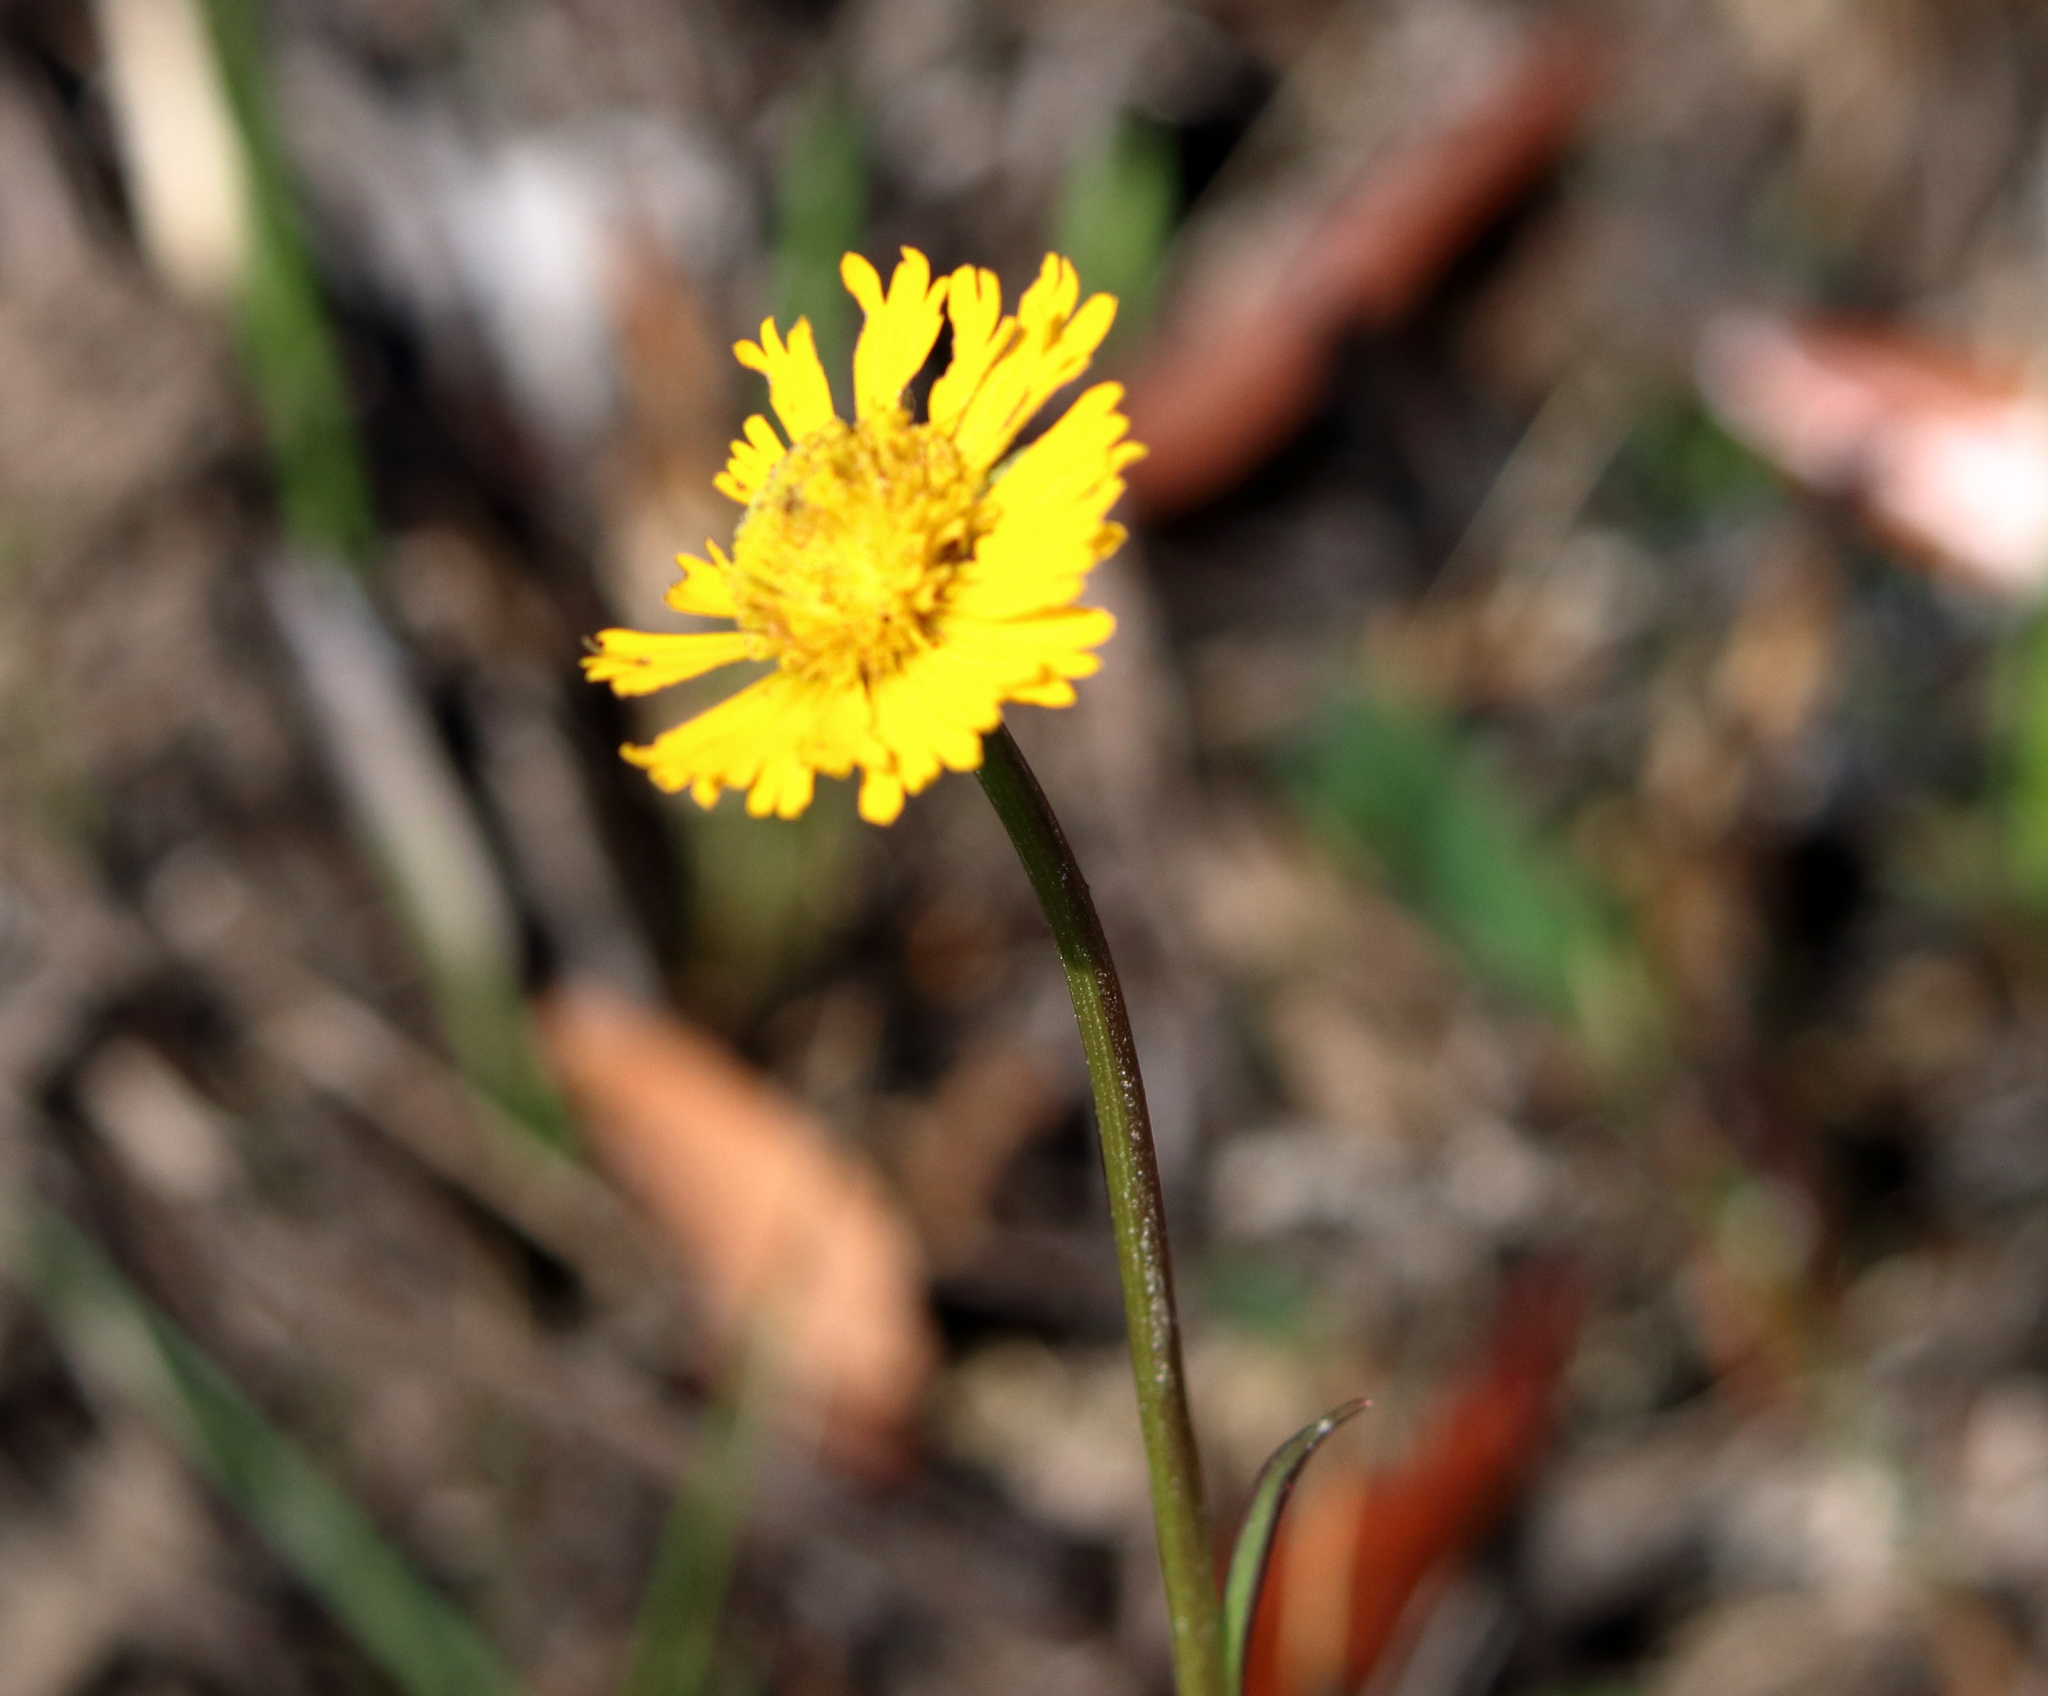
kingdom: Plantae
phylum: Tracheophyta
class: Magnoliopsida
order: Asterales
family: Asteraceae
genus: Helenium
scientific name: Helenium vernale
